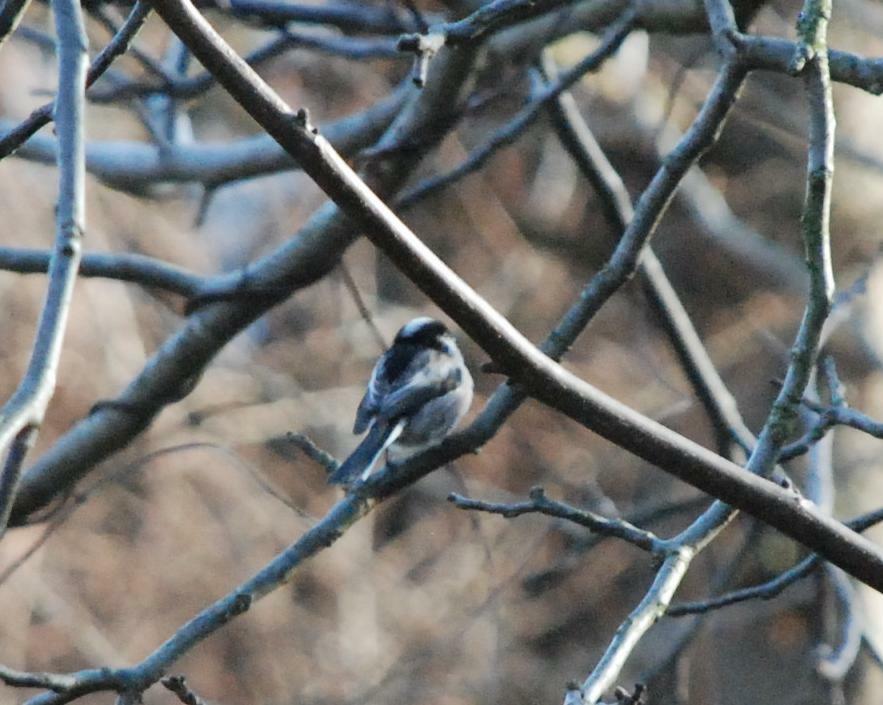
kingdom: Animalia
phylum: Chordata
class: Aves
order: Passeriformes
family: Aegithalidae
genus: Aegithalos
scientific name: Aegithalos caudatus
